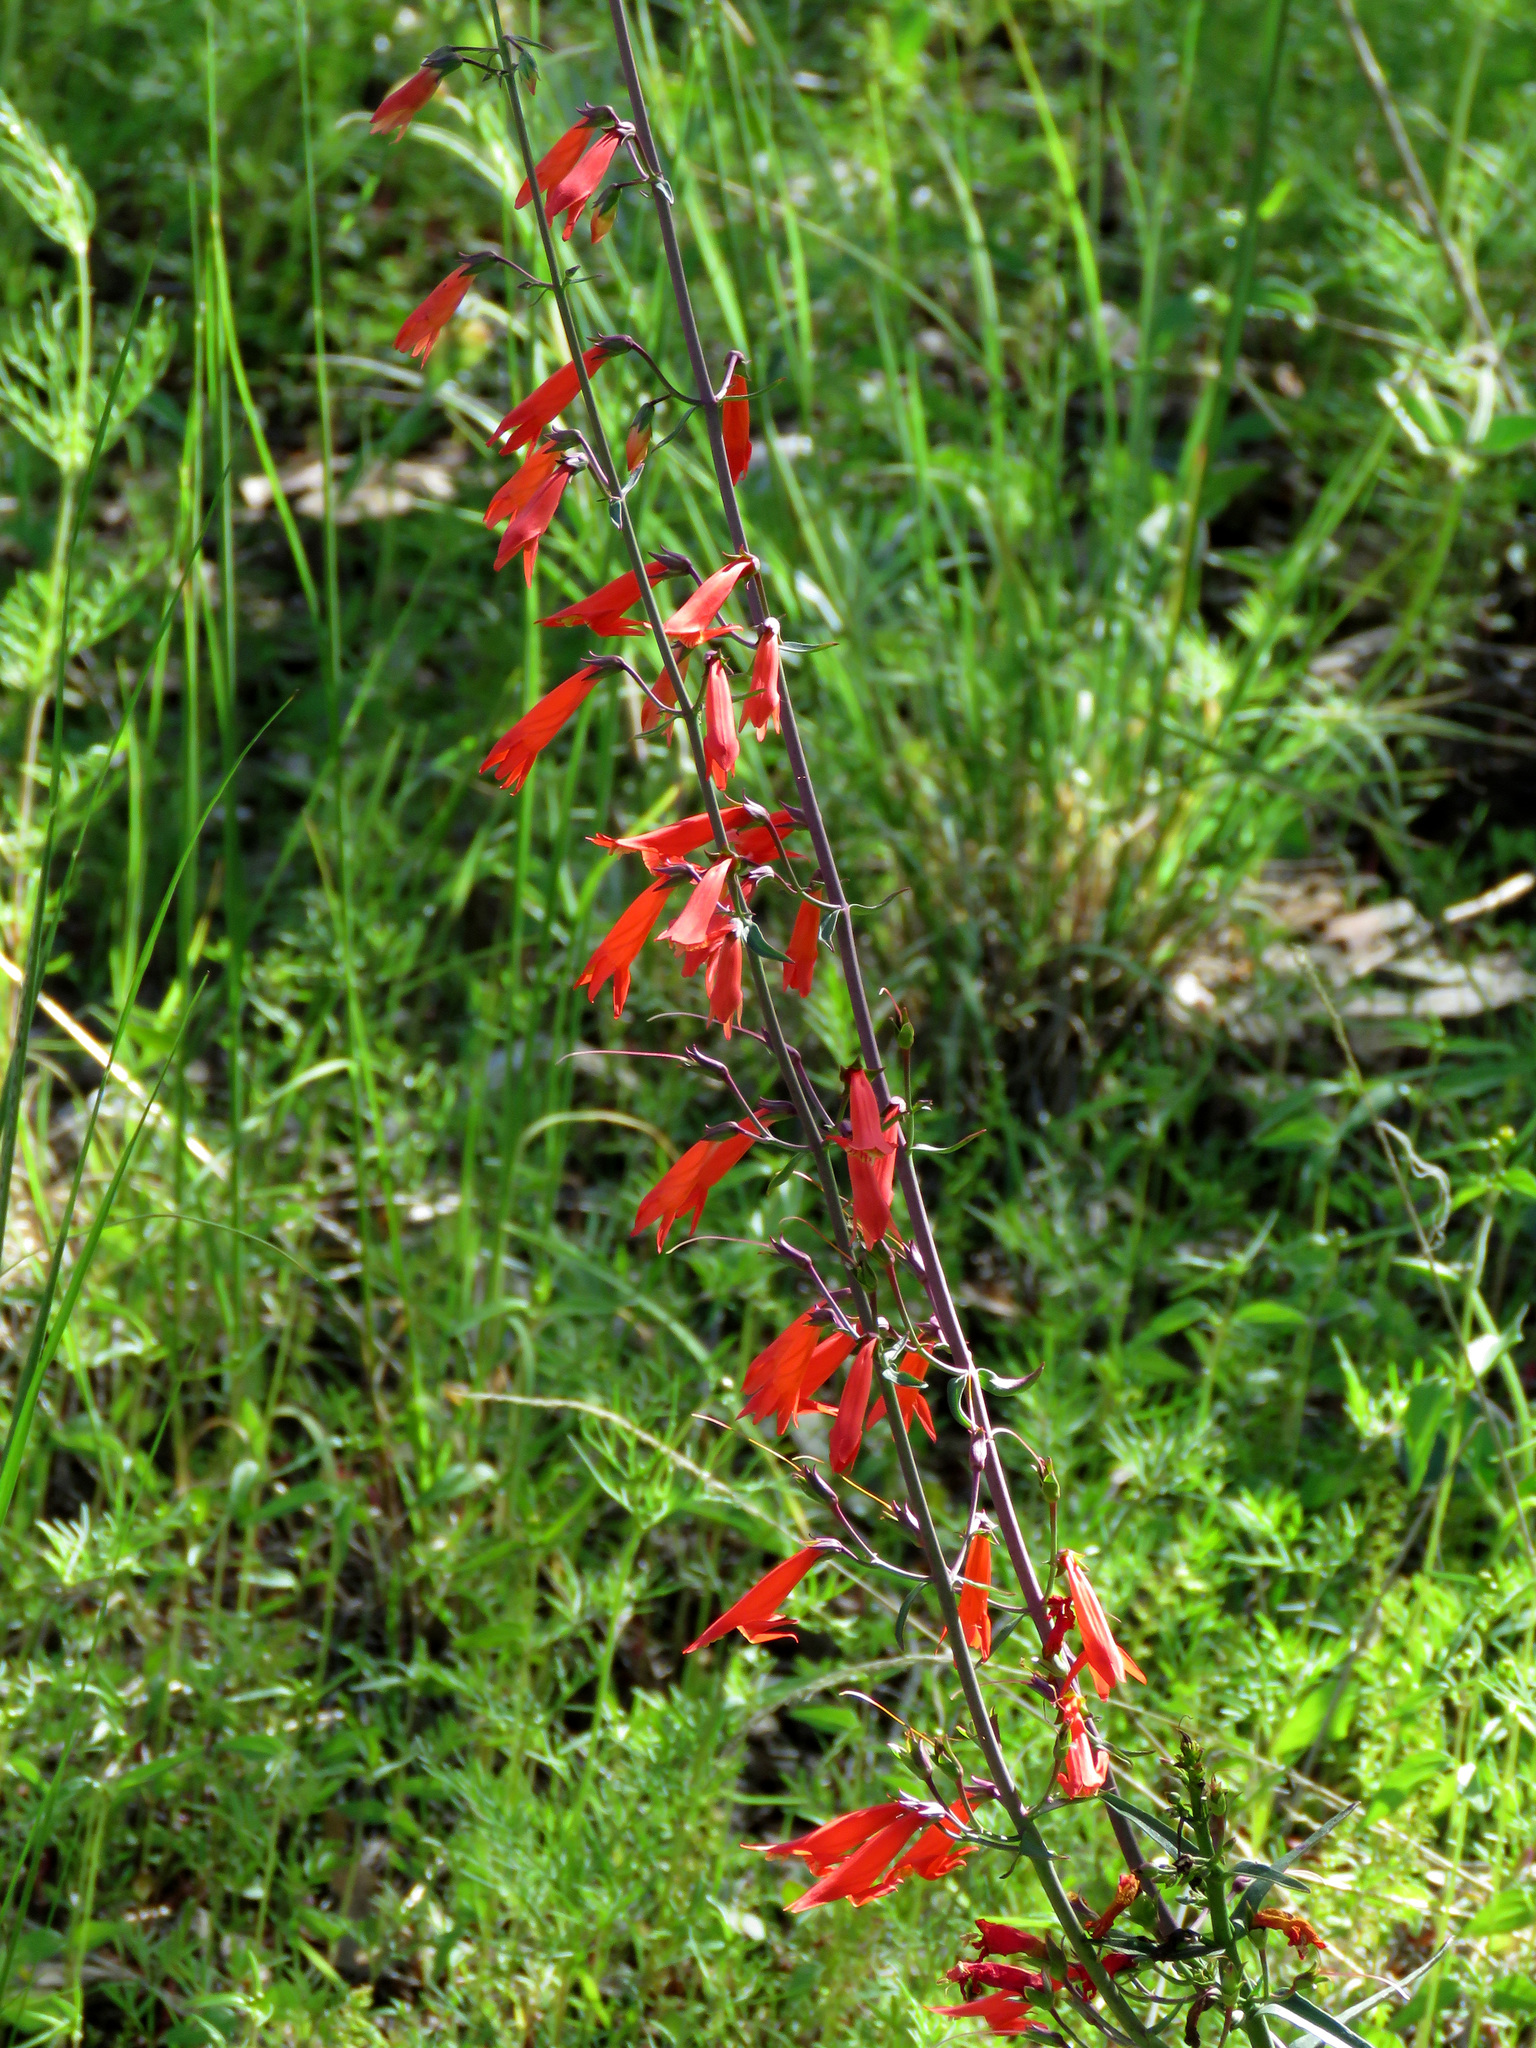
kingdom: Plantae
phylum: Tracheophyta
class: Magnoliopsida
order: Lamiales
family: Plantaginaceae
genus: Penstemon
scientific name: Penstemon barbatus
